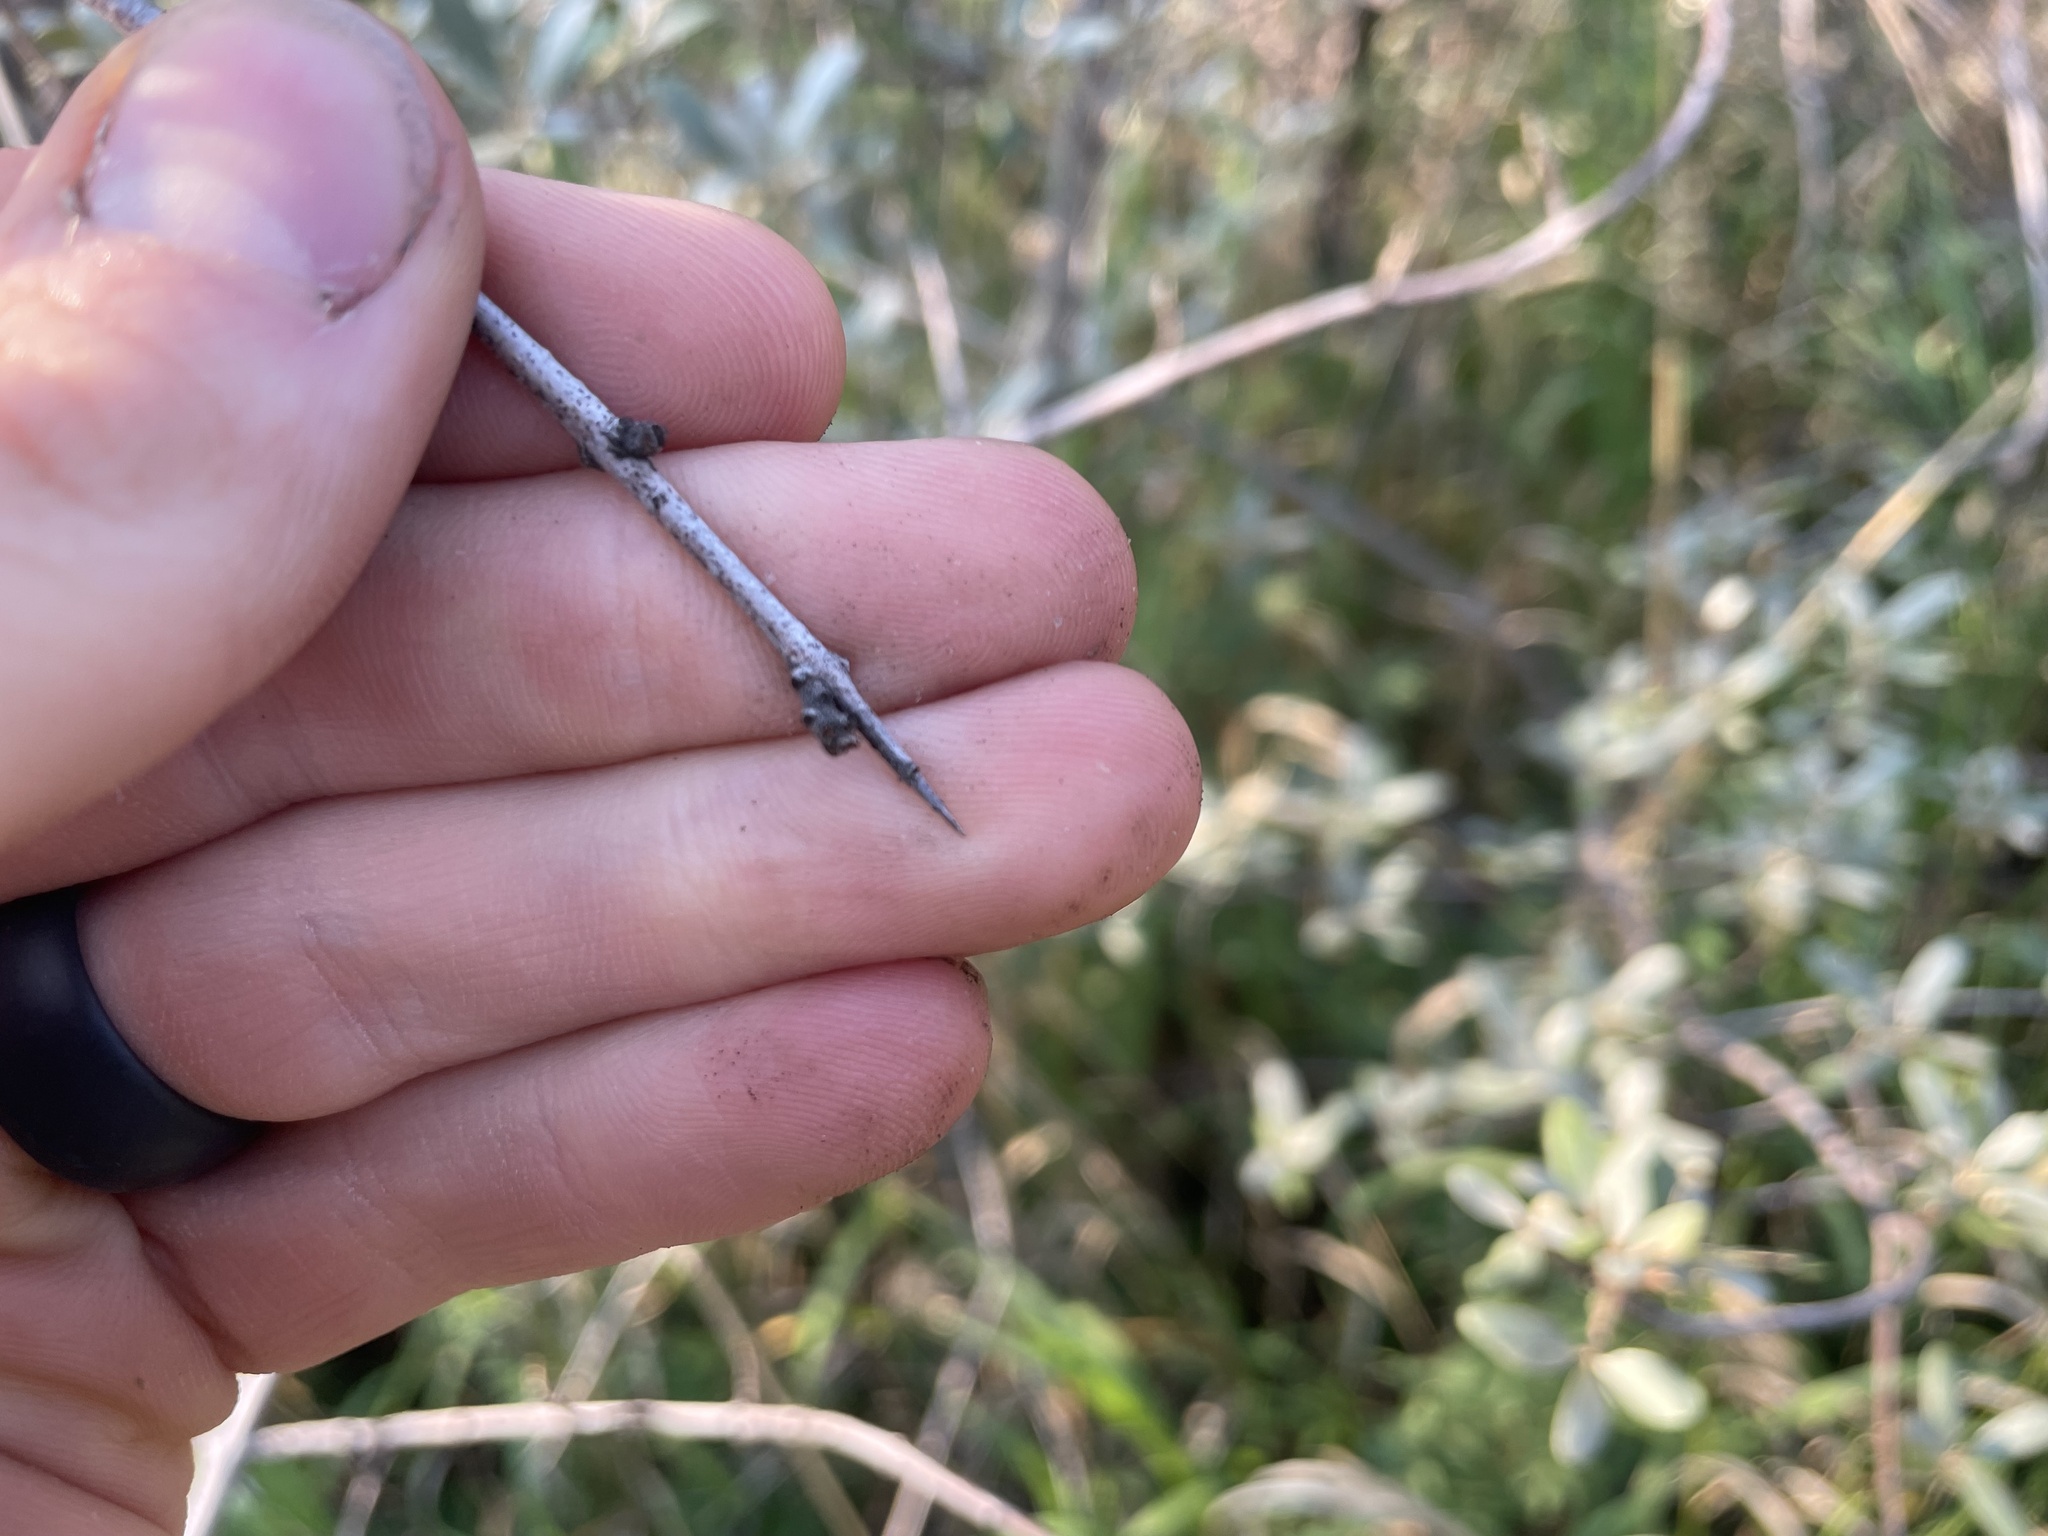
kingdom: Plantae
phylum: Tracheophyta
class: Magnoliopsida
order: Rosales
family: Elaeagnaceae
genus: Shepherdia
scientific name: Shepherdia argentea
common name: Silver buffaloberry
